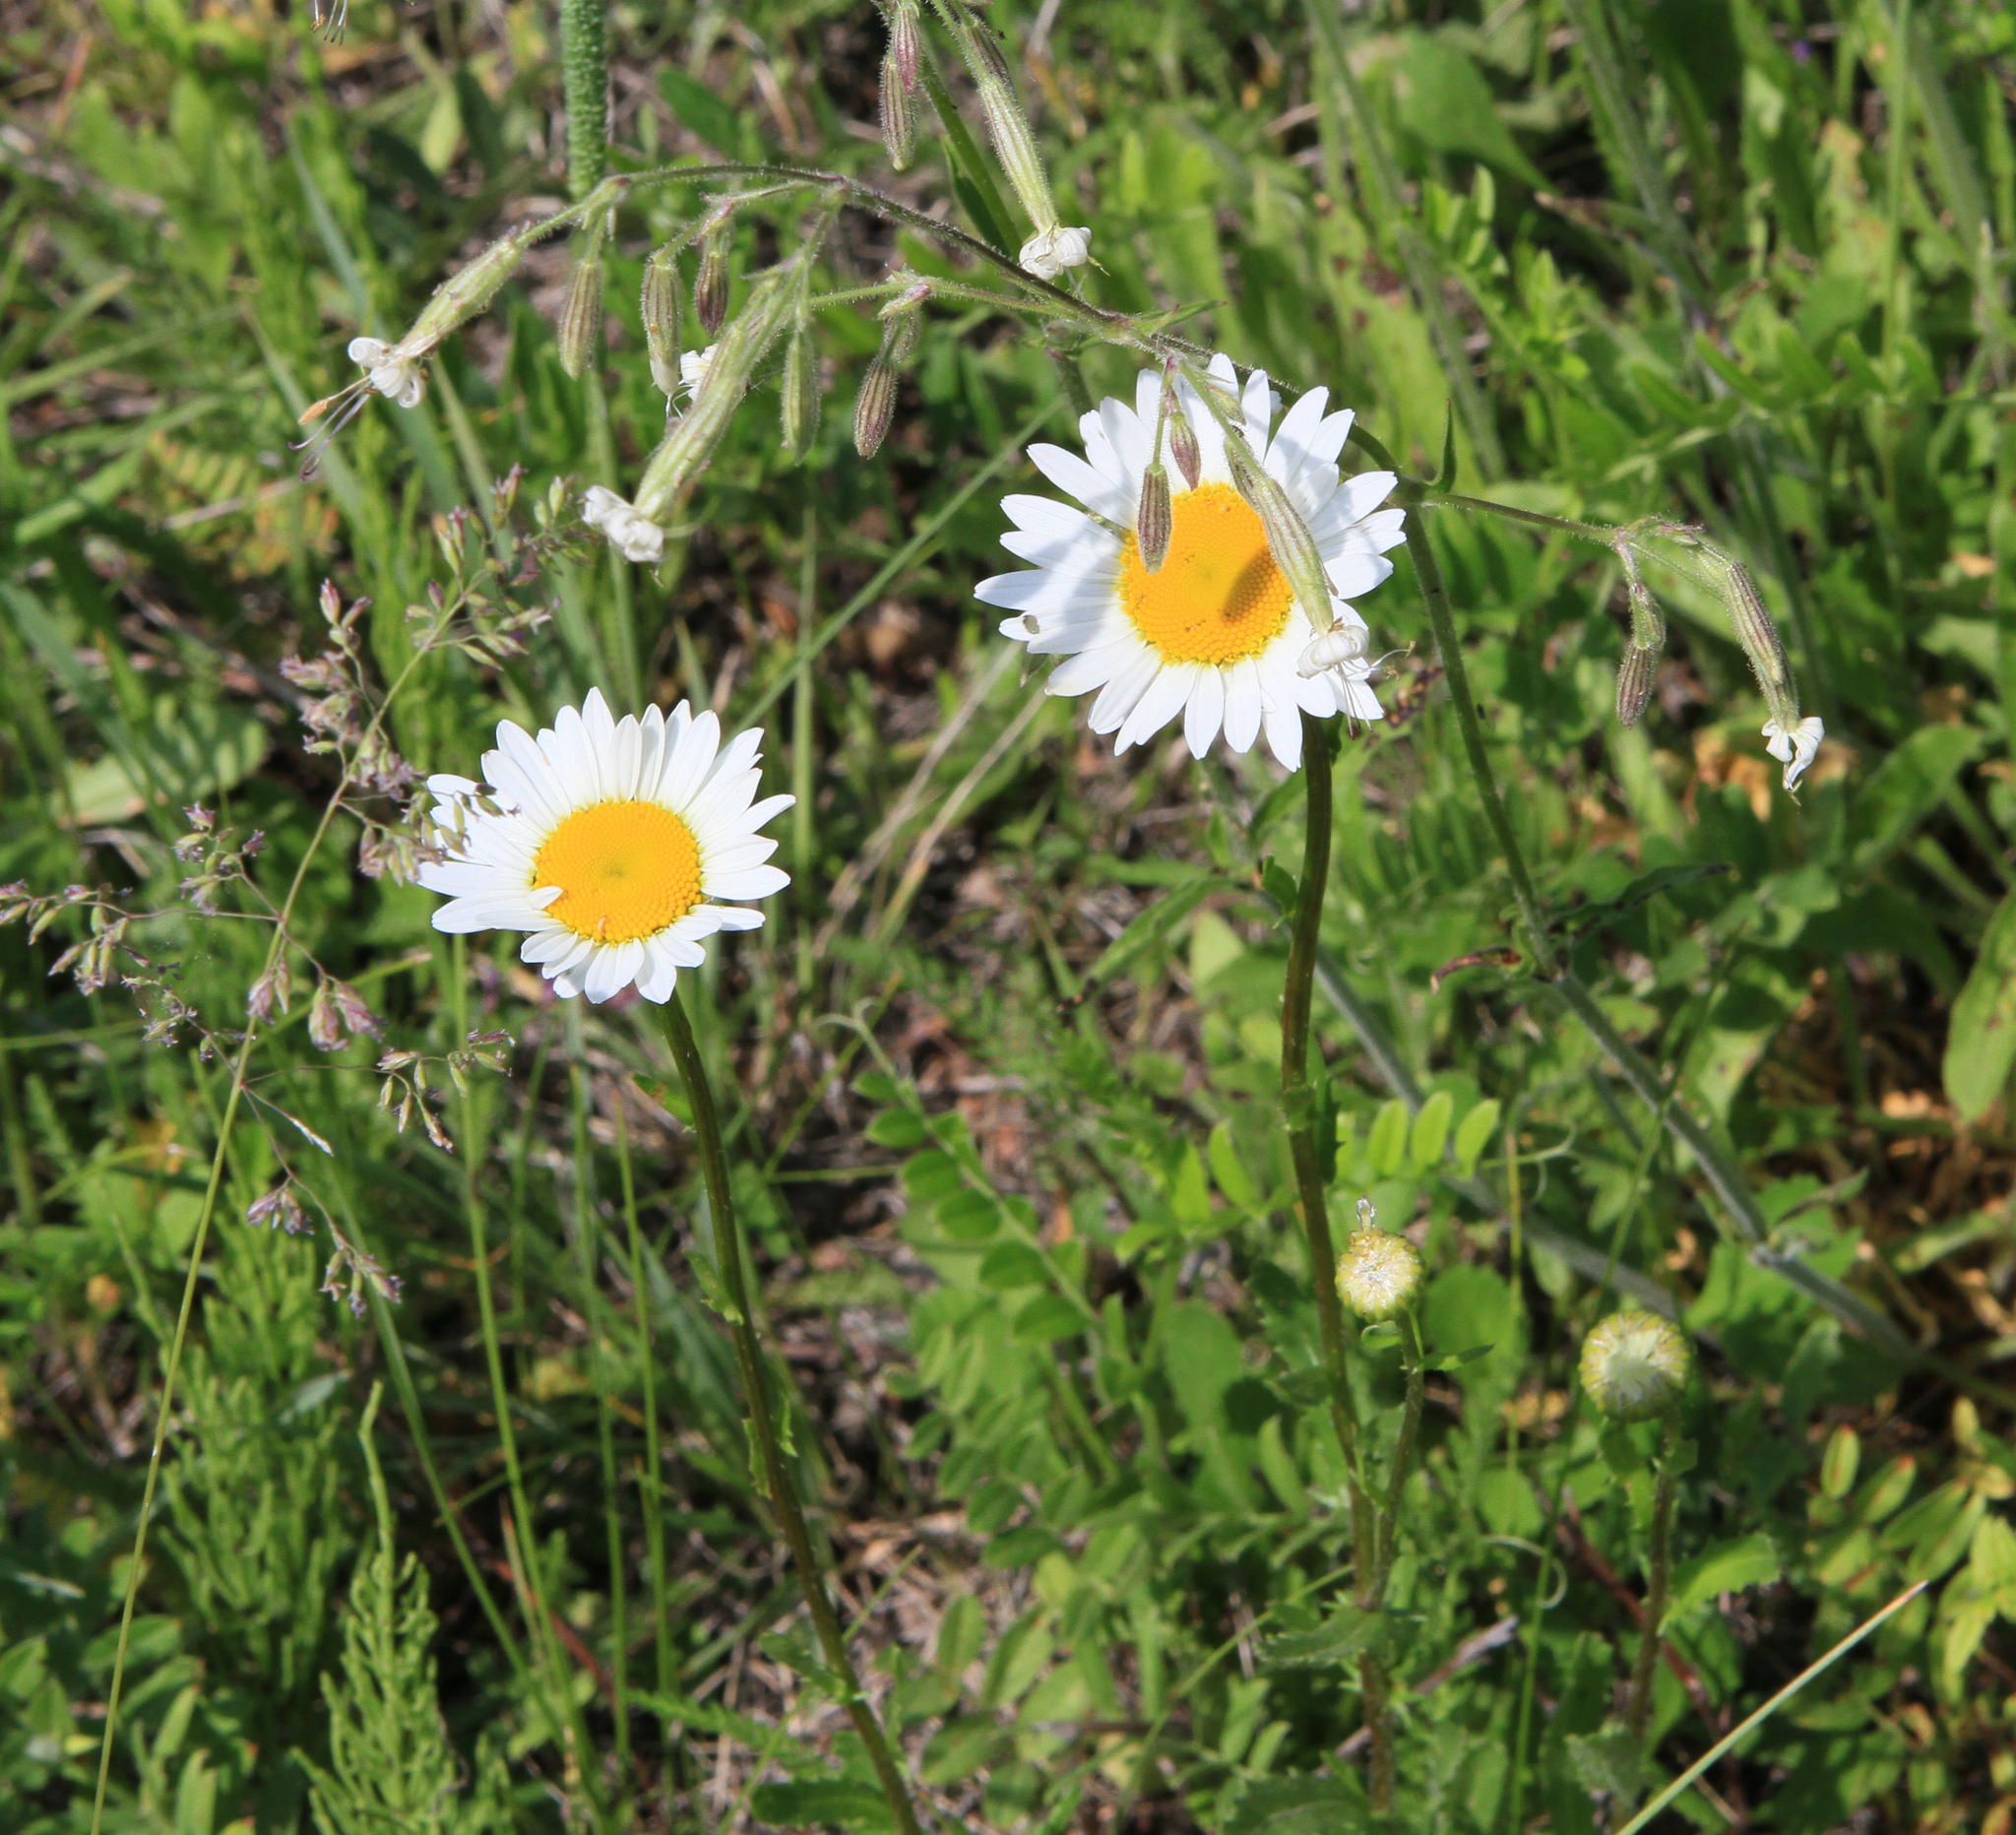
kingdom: Plantae
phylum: Tracheophyta
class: Magnoliopsida
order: Caryophyllales
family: Caryophyllaceae
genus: Silene
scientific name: Silene nutans
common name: Nottingham catchfly
